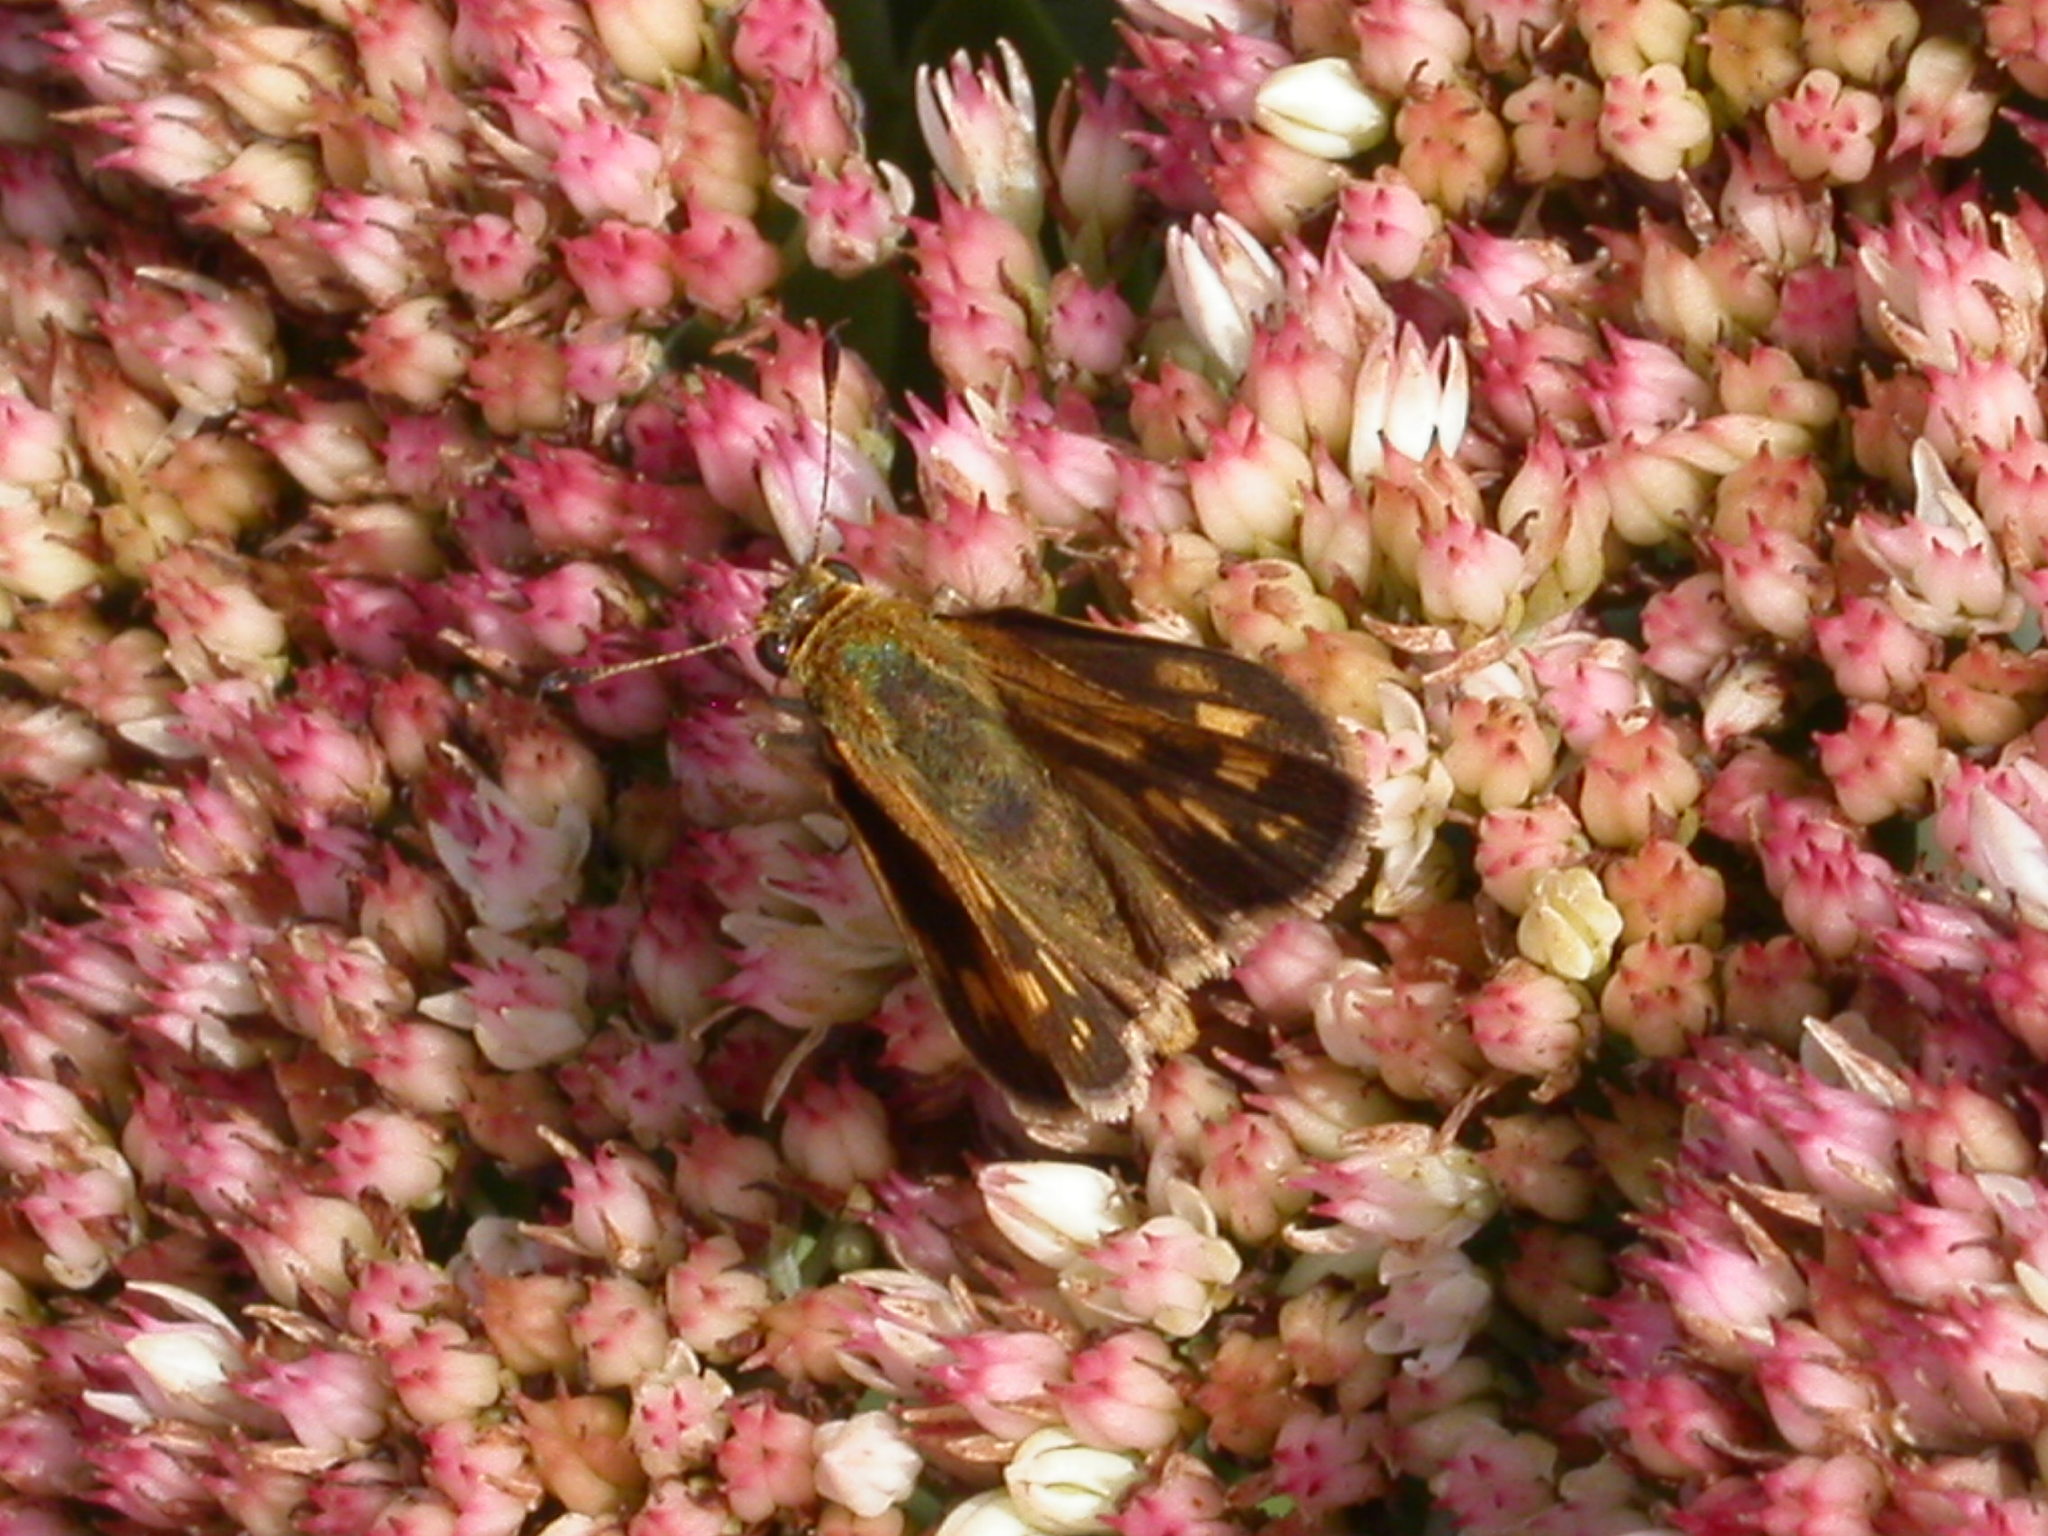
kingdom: Animalia
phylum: Arthropoda
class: Insecta
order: Lepidoptera
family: Hesperiidae
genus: Polites
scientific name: Polites coras
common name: Peck's skipper
